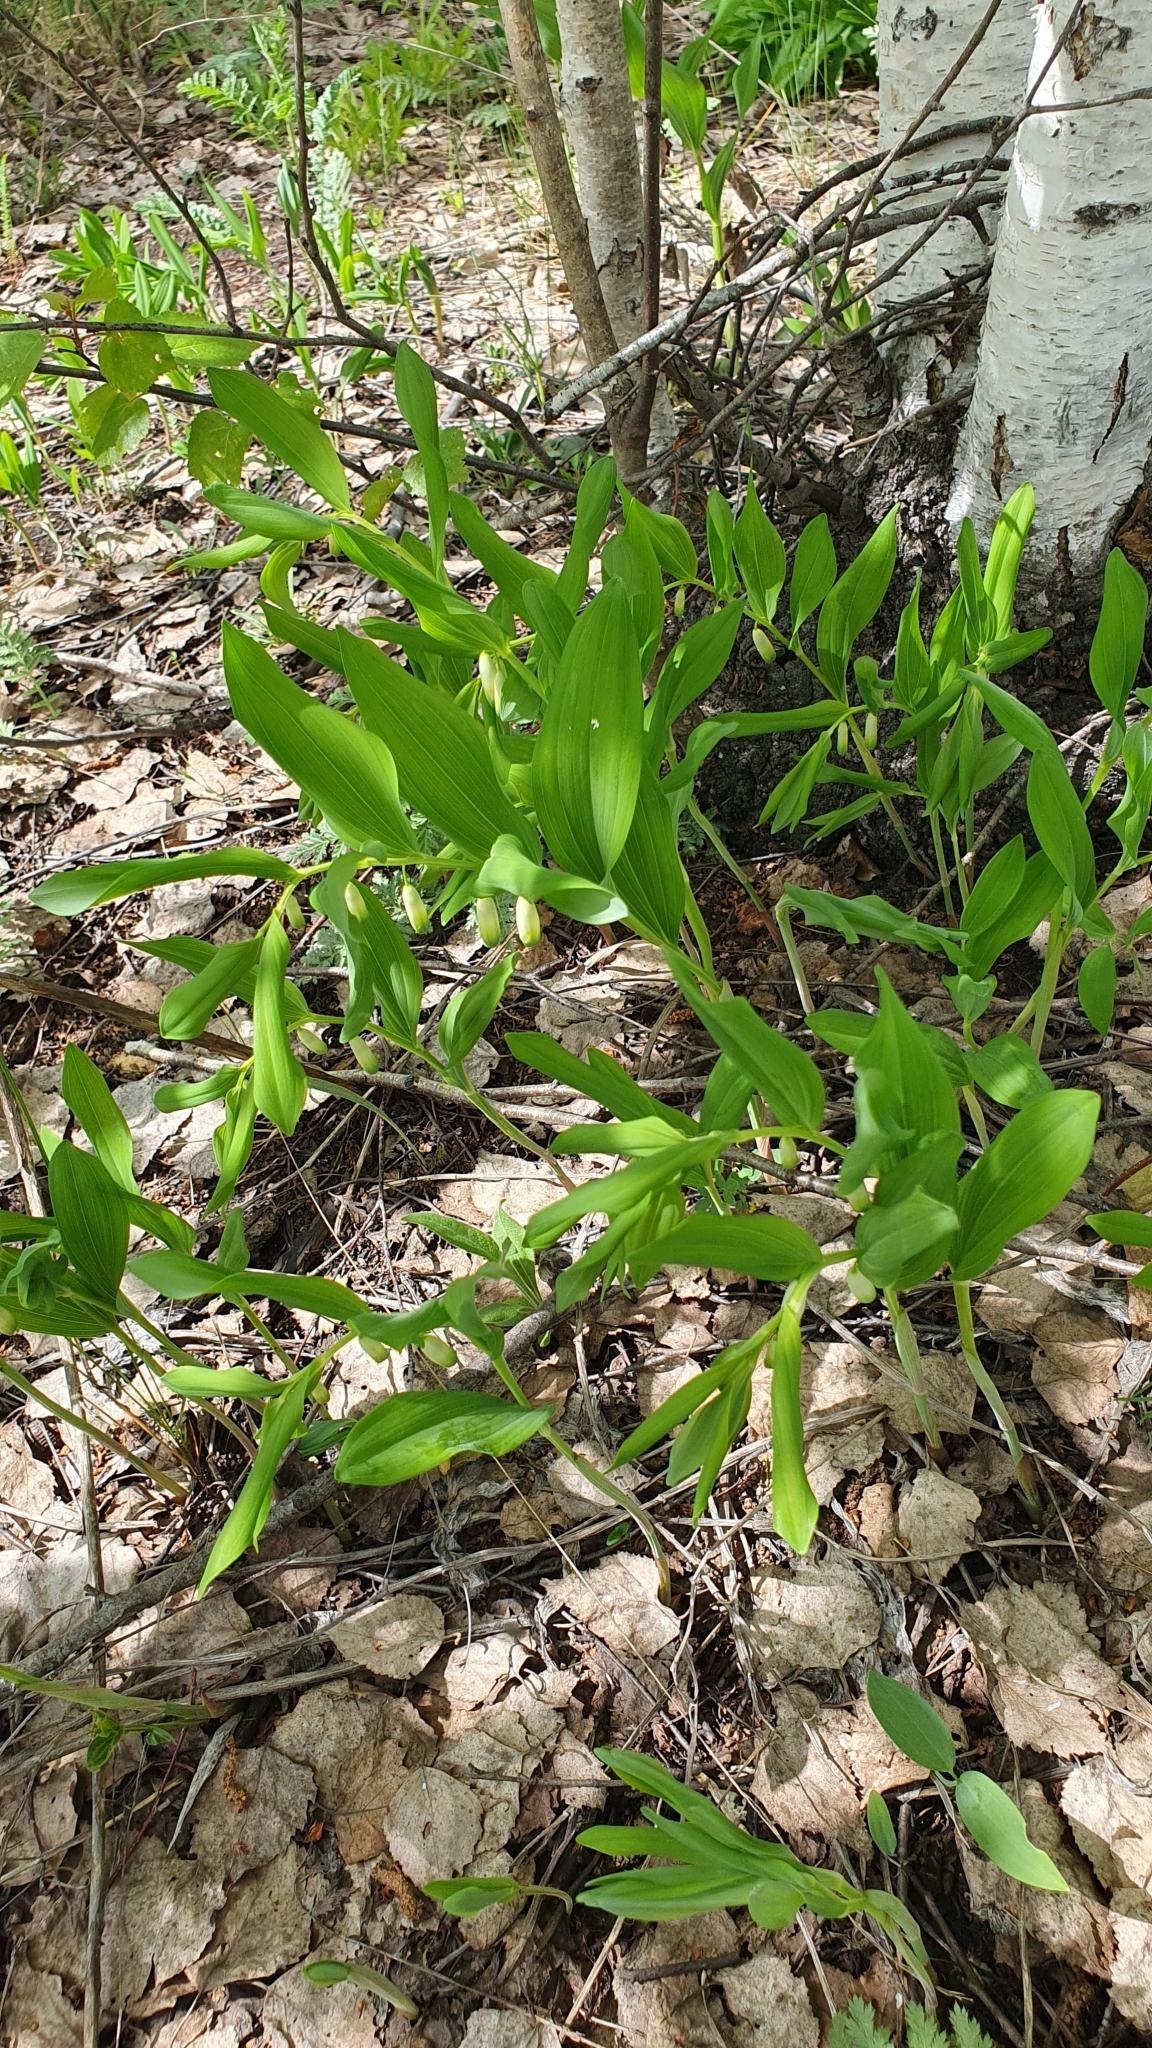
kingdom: Plantae
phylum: Tracheophyta
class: Liliopsida
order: Asparagales
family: Asparagaceae
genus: Polygonatum
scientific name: Polygonatum odoratum
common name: Angular solomon's-seal
